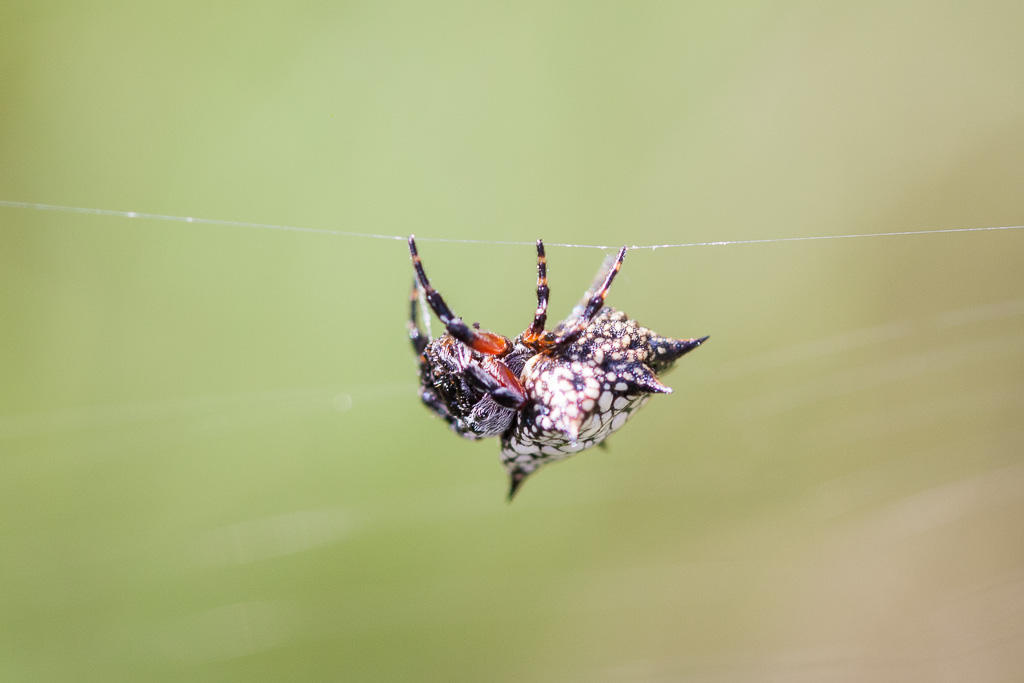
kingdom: Animalia
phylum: Arthropoda
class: Arachnida
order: Araneae
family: Araneidae
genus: Isoxya
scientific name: Isoxya cicatricosa
